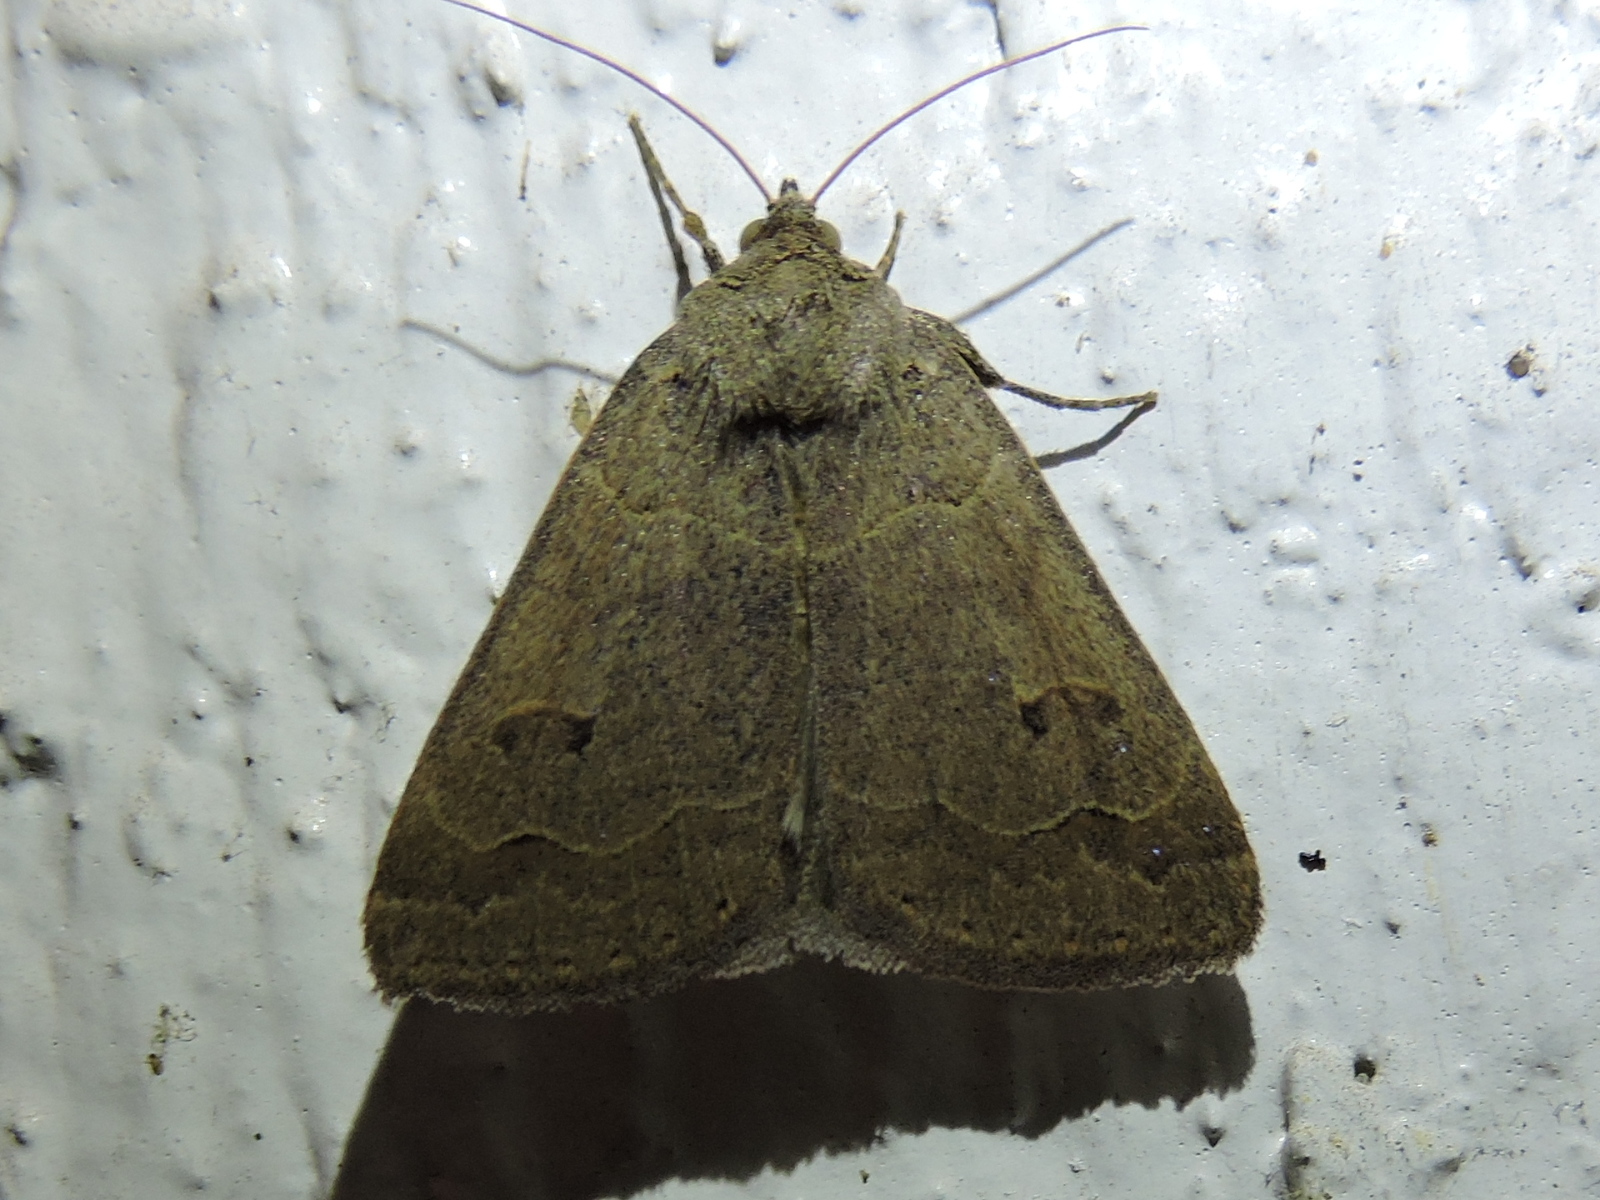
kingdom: Animalia
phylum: Arthropoda
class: Insecta
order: Lepidoptera
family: Erebidae
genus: Phoberia
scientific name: Phoberia atomaris
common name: Common oak moth
